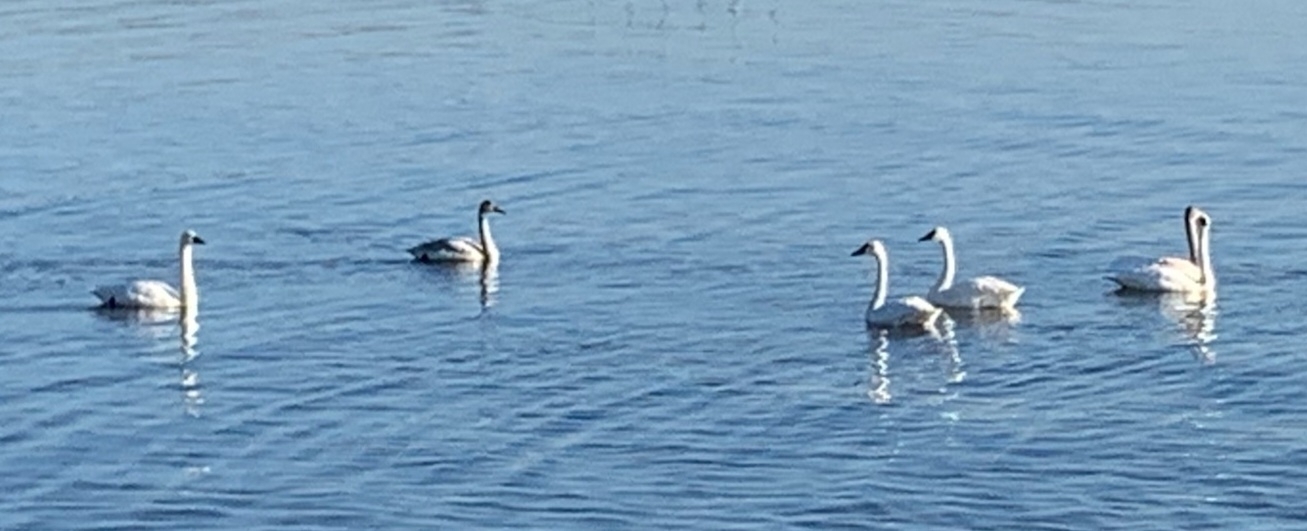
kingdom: Animalia
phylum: Chordata
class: Aves
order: Anseriformes
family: Anatidae
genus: Cygnus
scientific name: Cygnus columbianus
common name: Tundra swan
